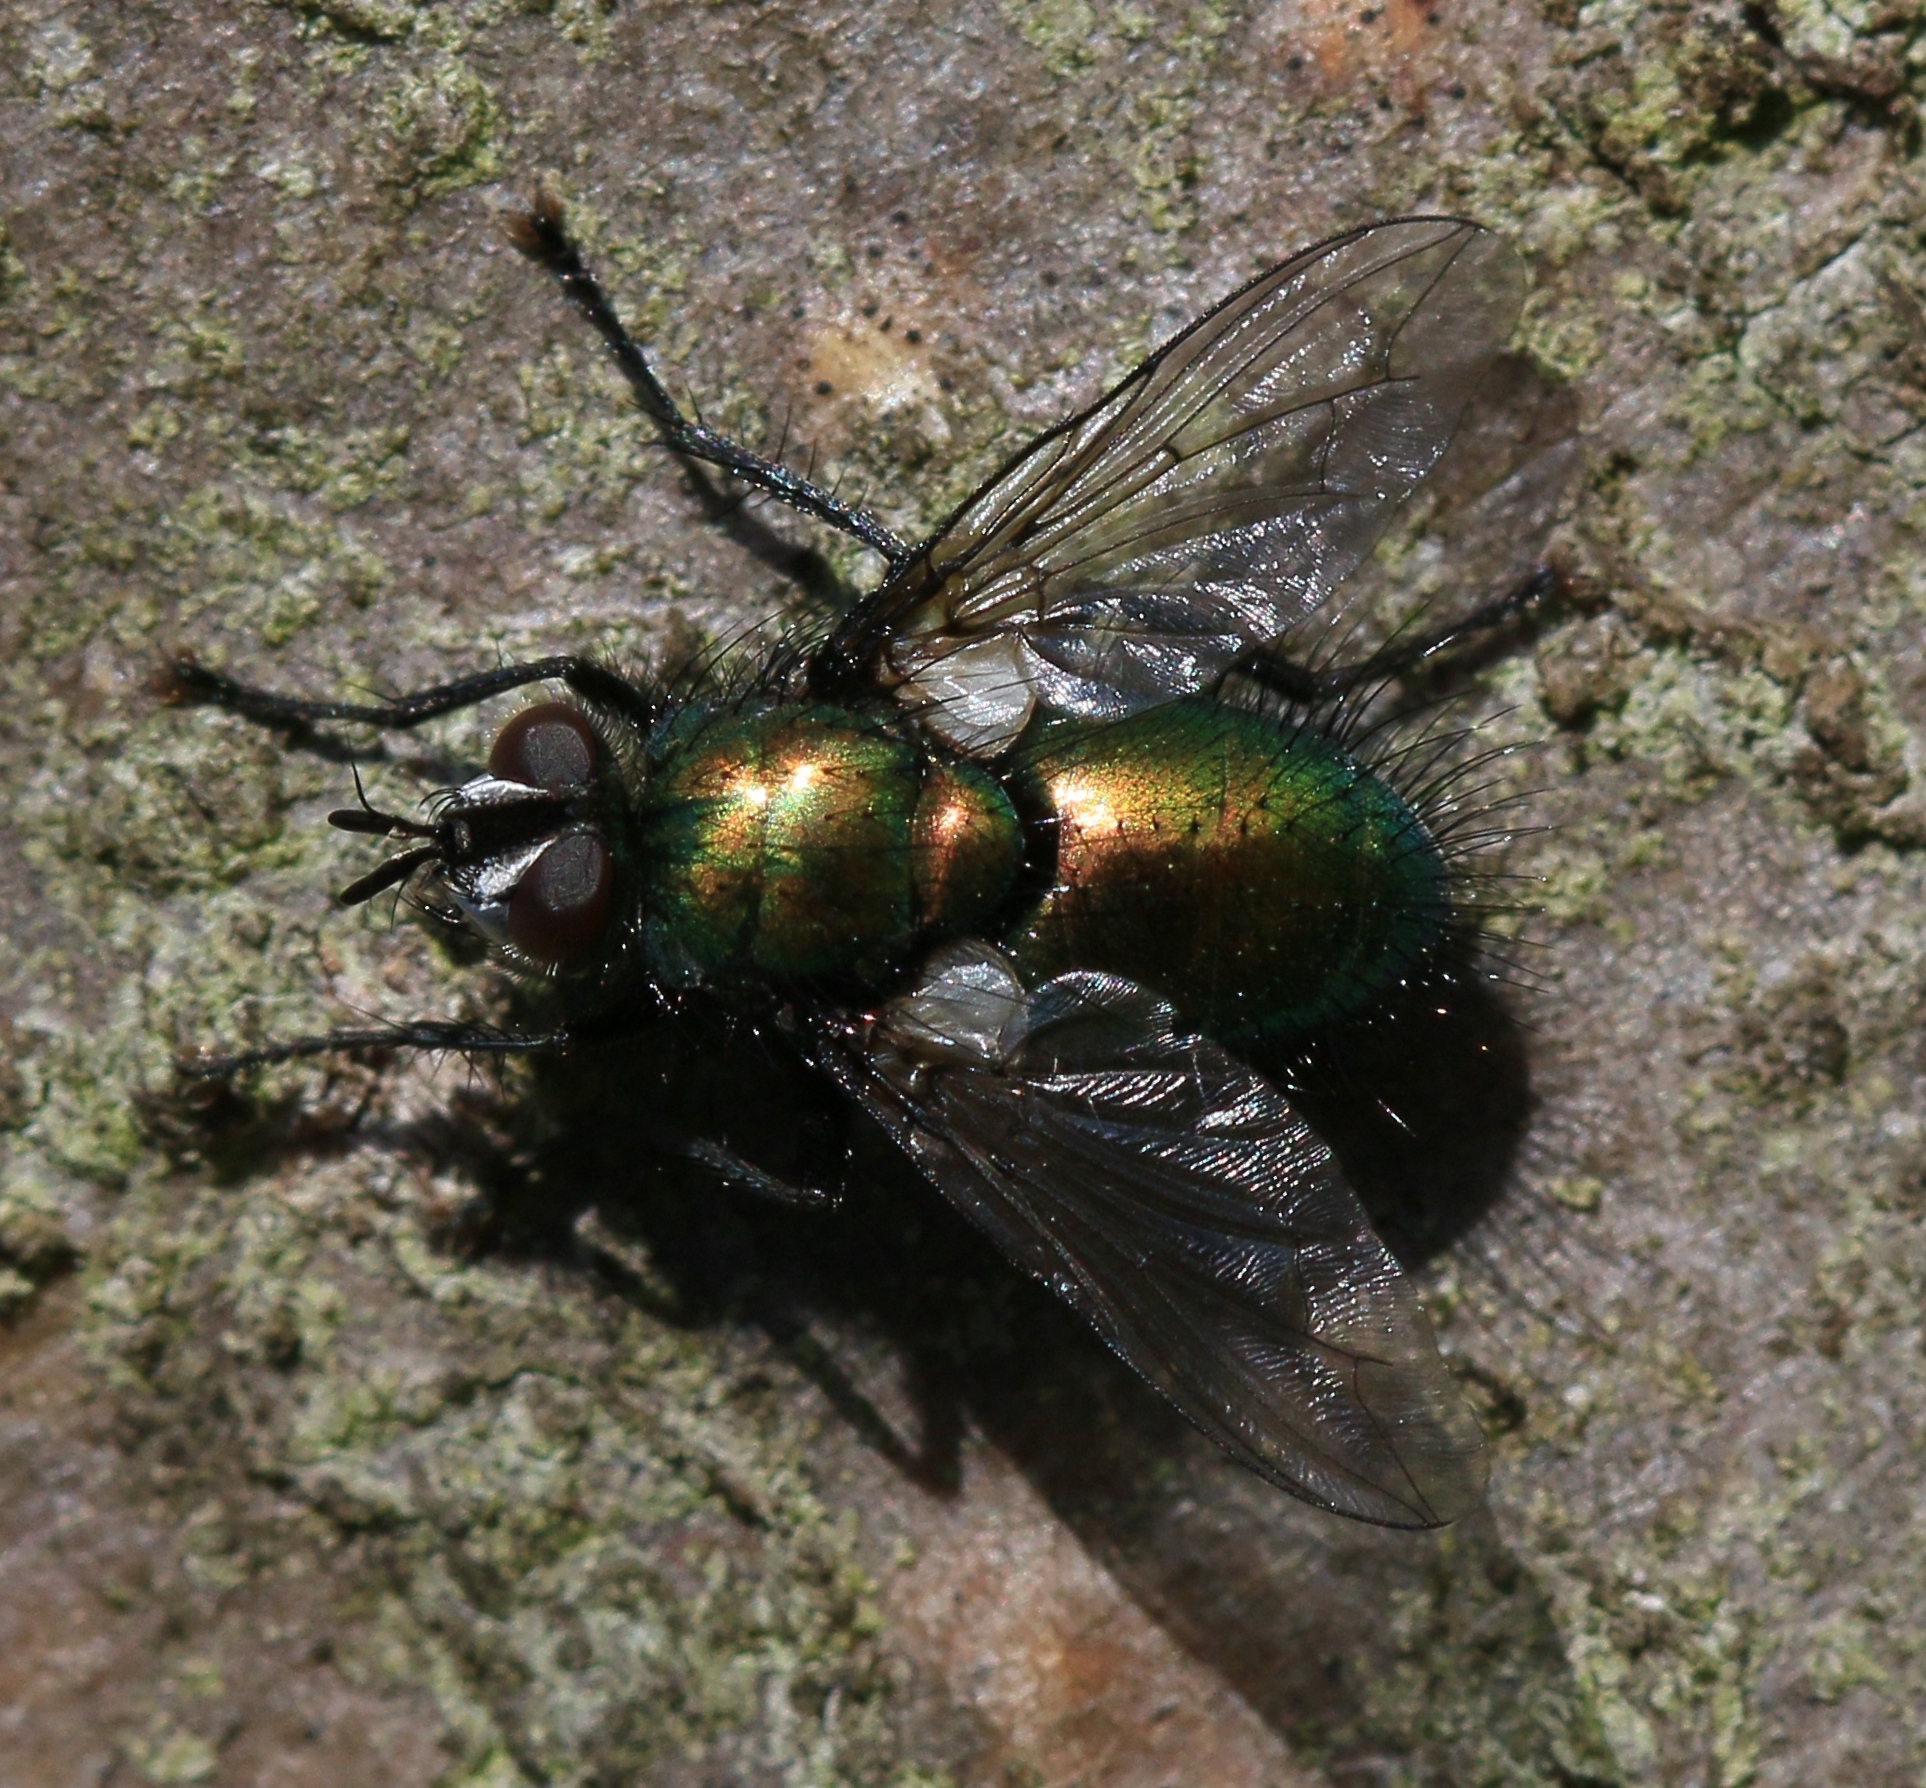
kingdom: Animalia
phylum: Arthropoda
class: Insecta
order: Diptera
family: Tachinidae
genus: Gymnocheta
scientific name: Gymnocheta viridis
